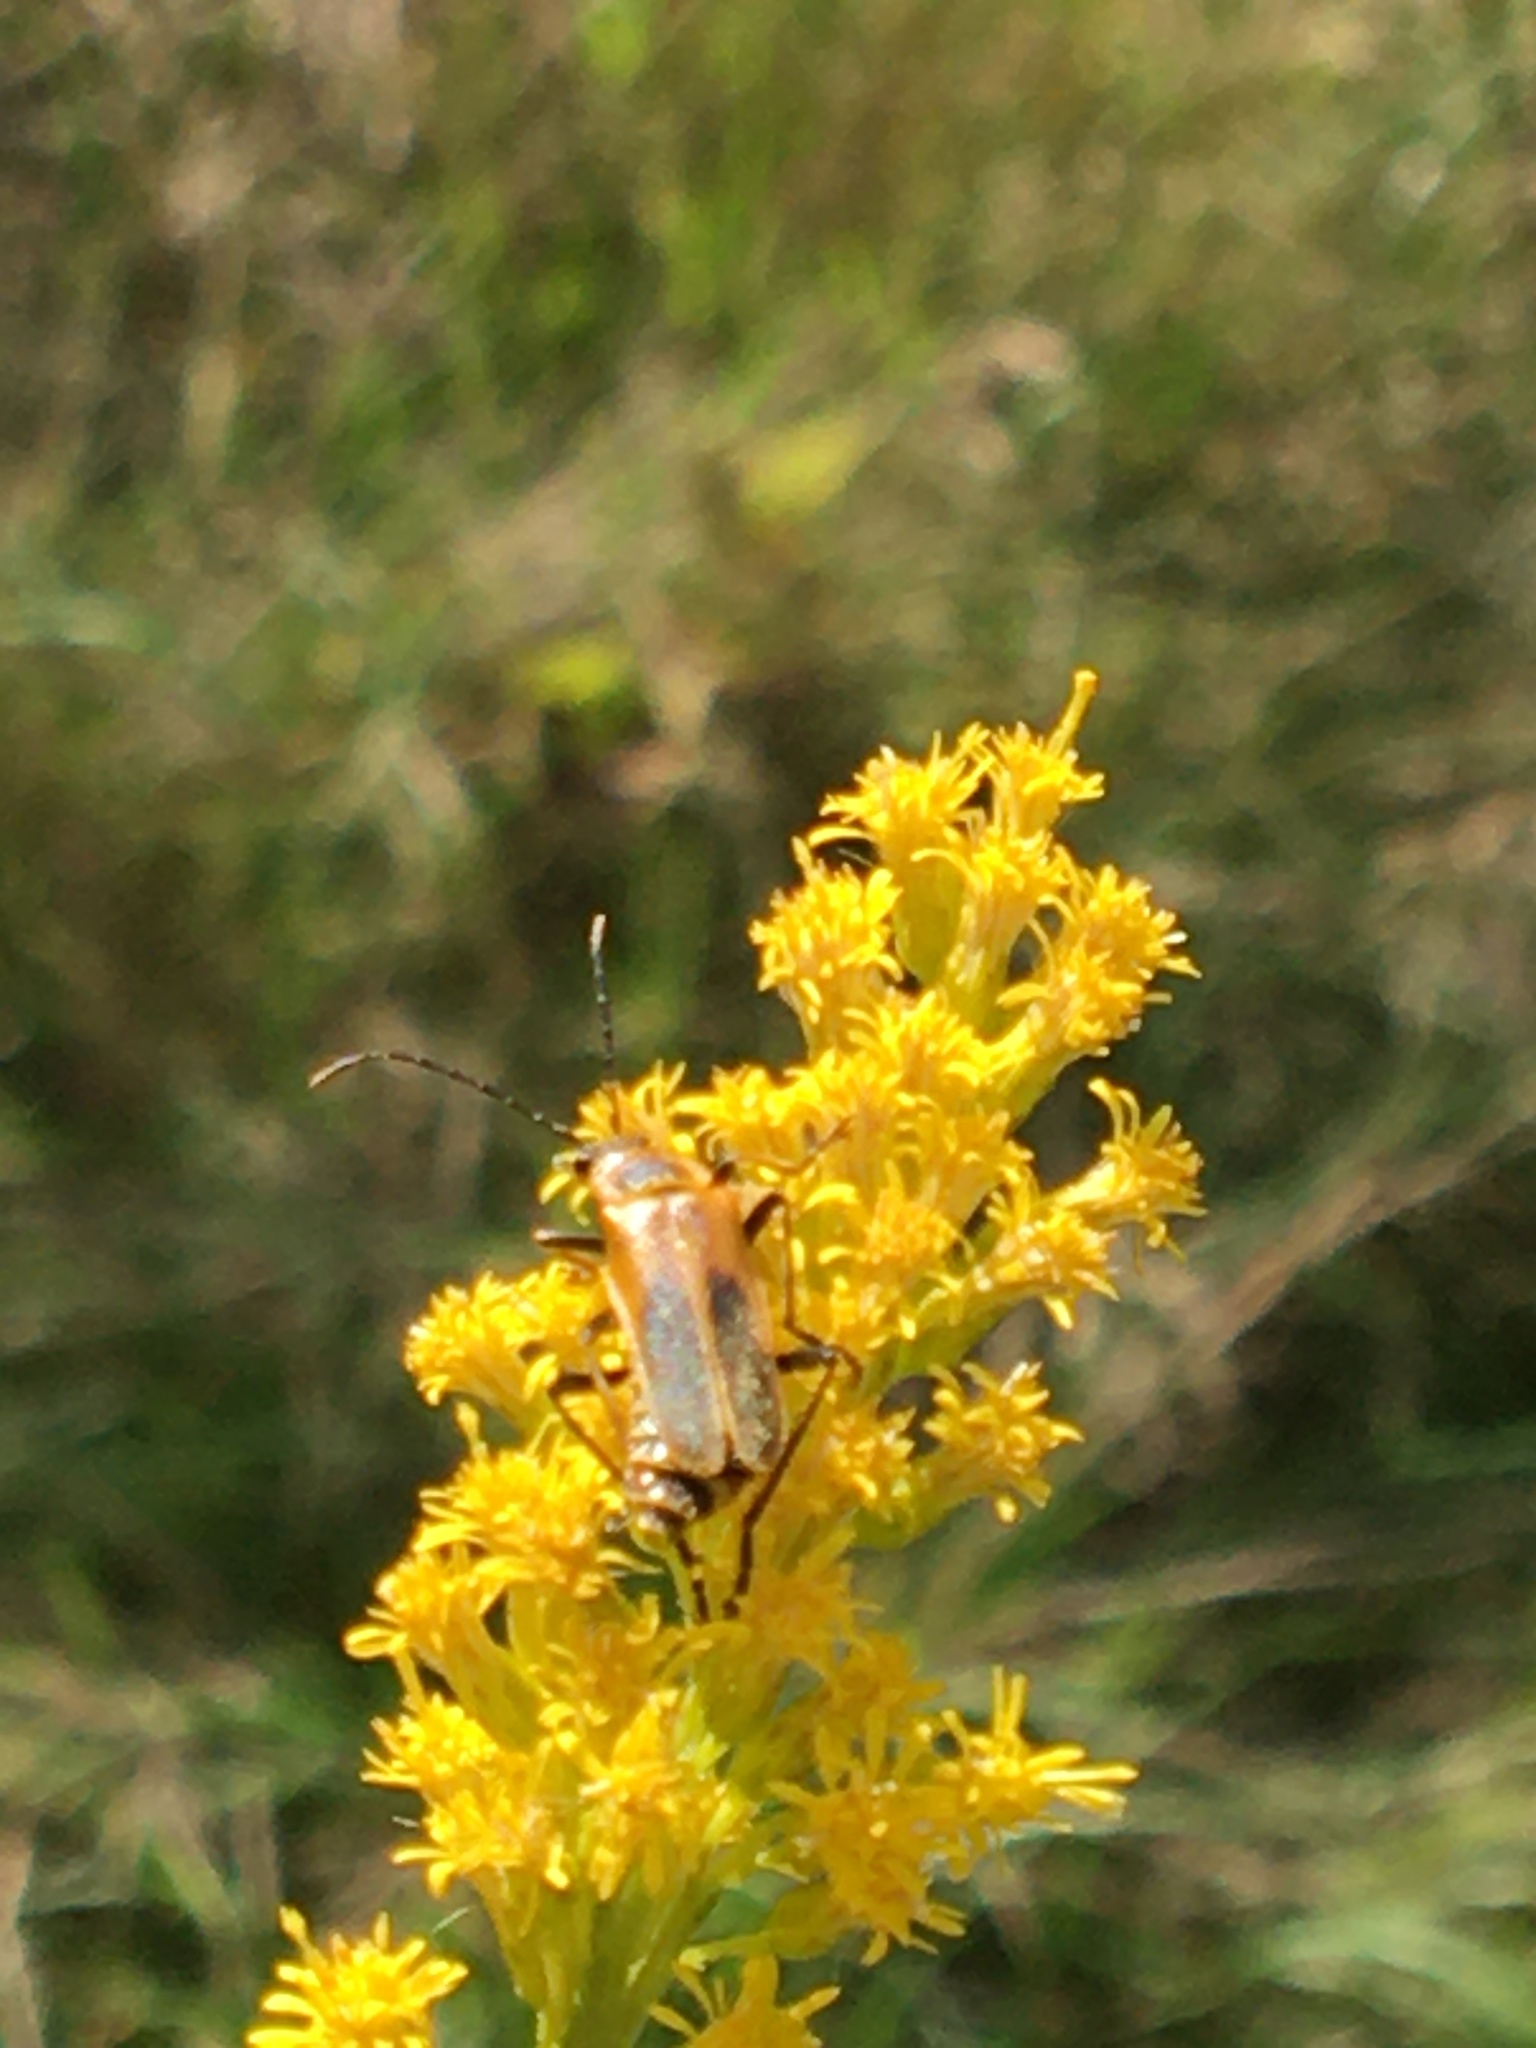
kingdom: Animalia
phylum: Arthropoda
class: Insecta
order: Coleoptera
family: Cantharidae
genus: Chauliognathus
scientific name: Chauliognathus pensylvanicus
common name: Goldenrod soldier beetle
